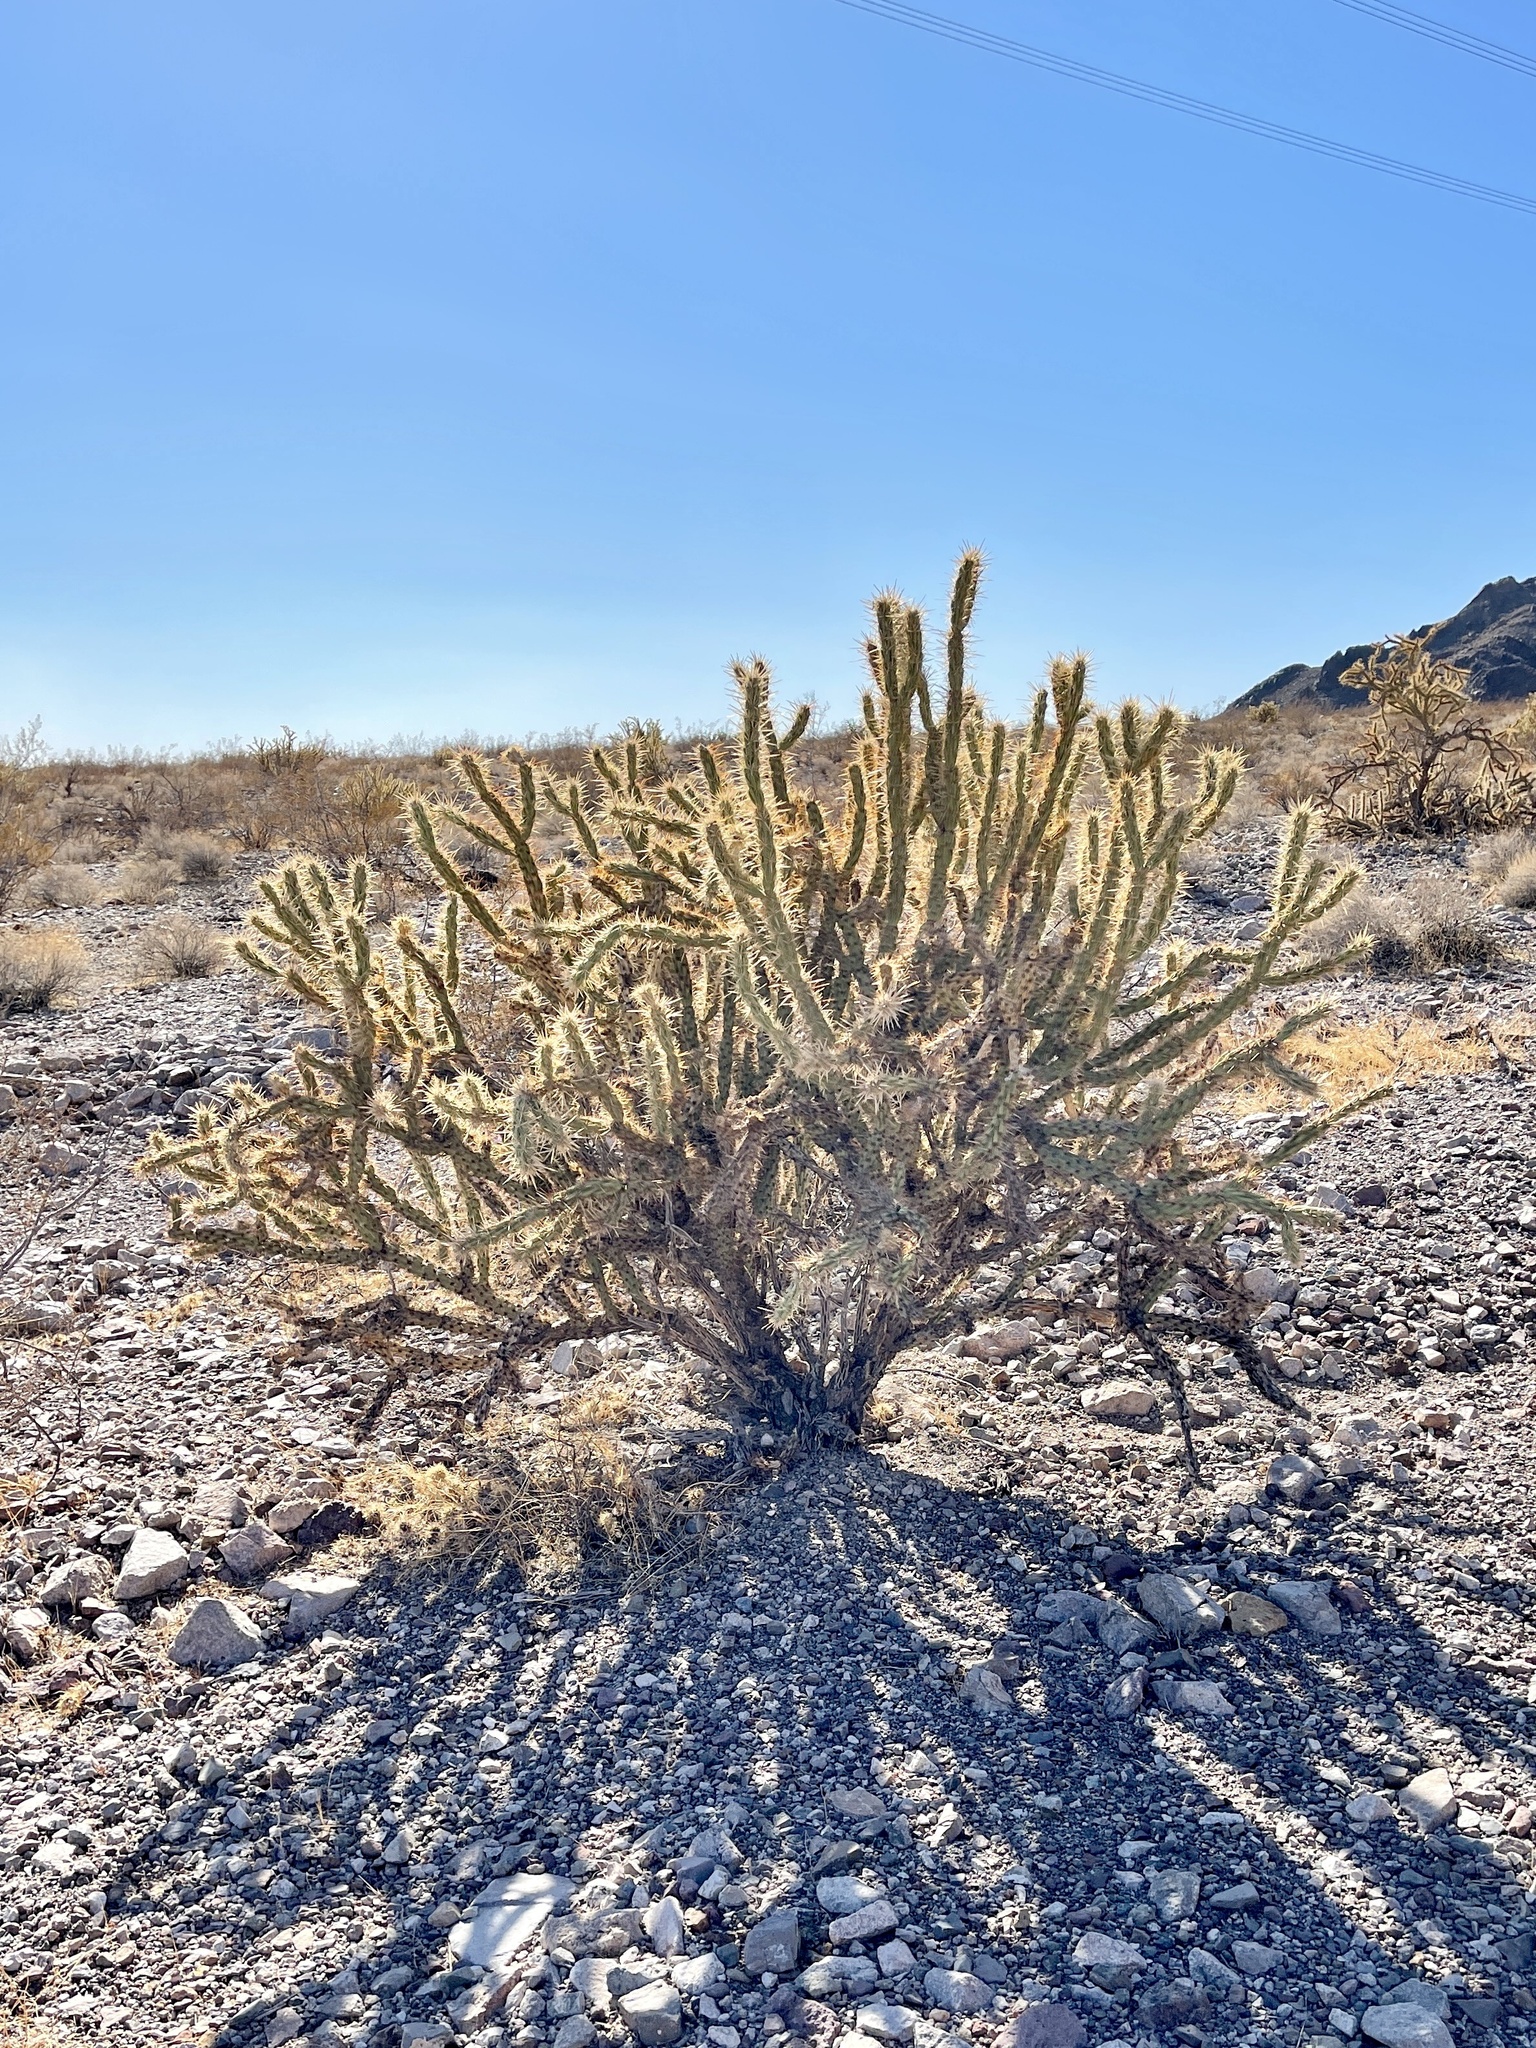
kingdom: Plantae
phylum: Tracheophyta
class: Magnoliopsida
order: Caryophyllales
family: Cactaceae
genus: Cylindropuntia
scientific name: Cylindropuntia acanthocarpa
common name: Buckhorn cholla
